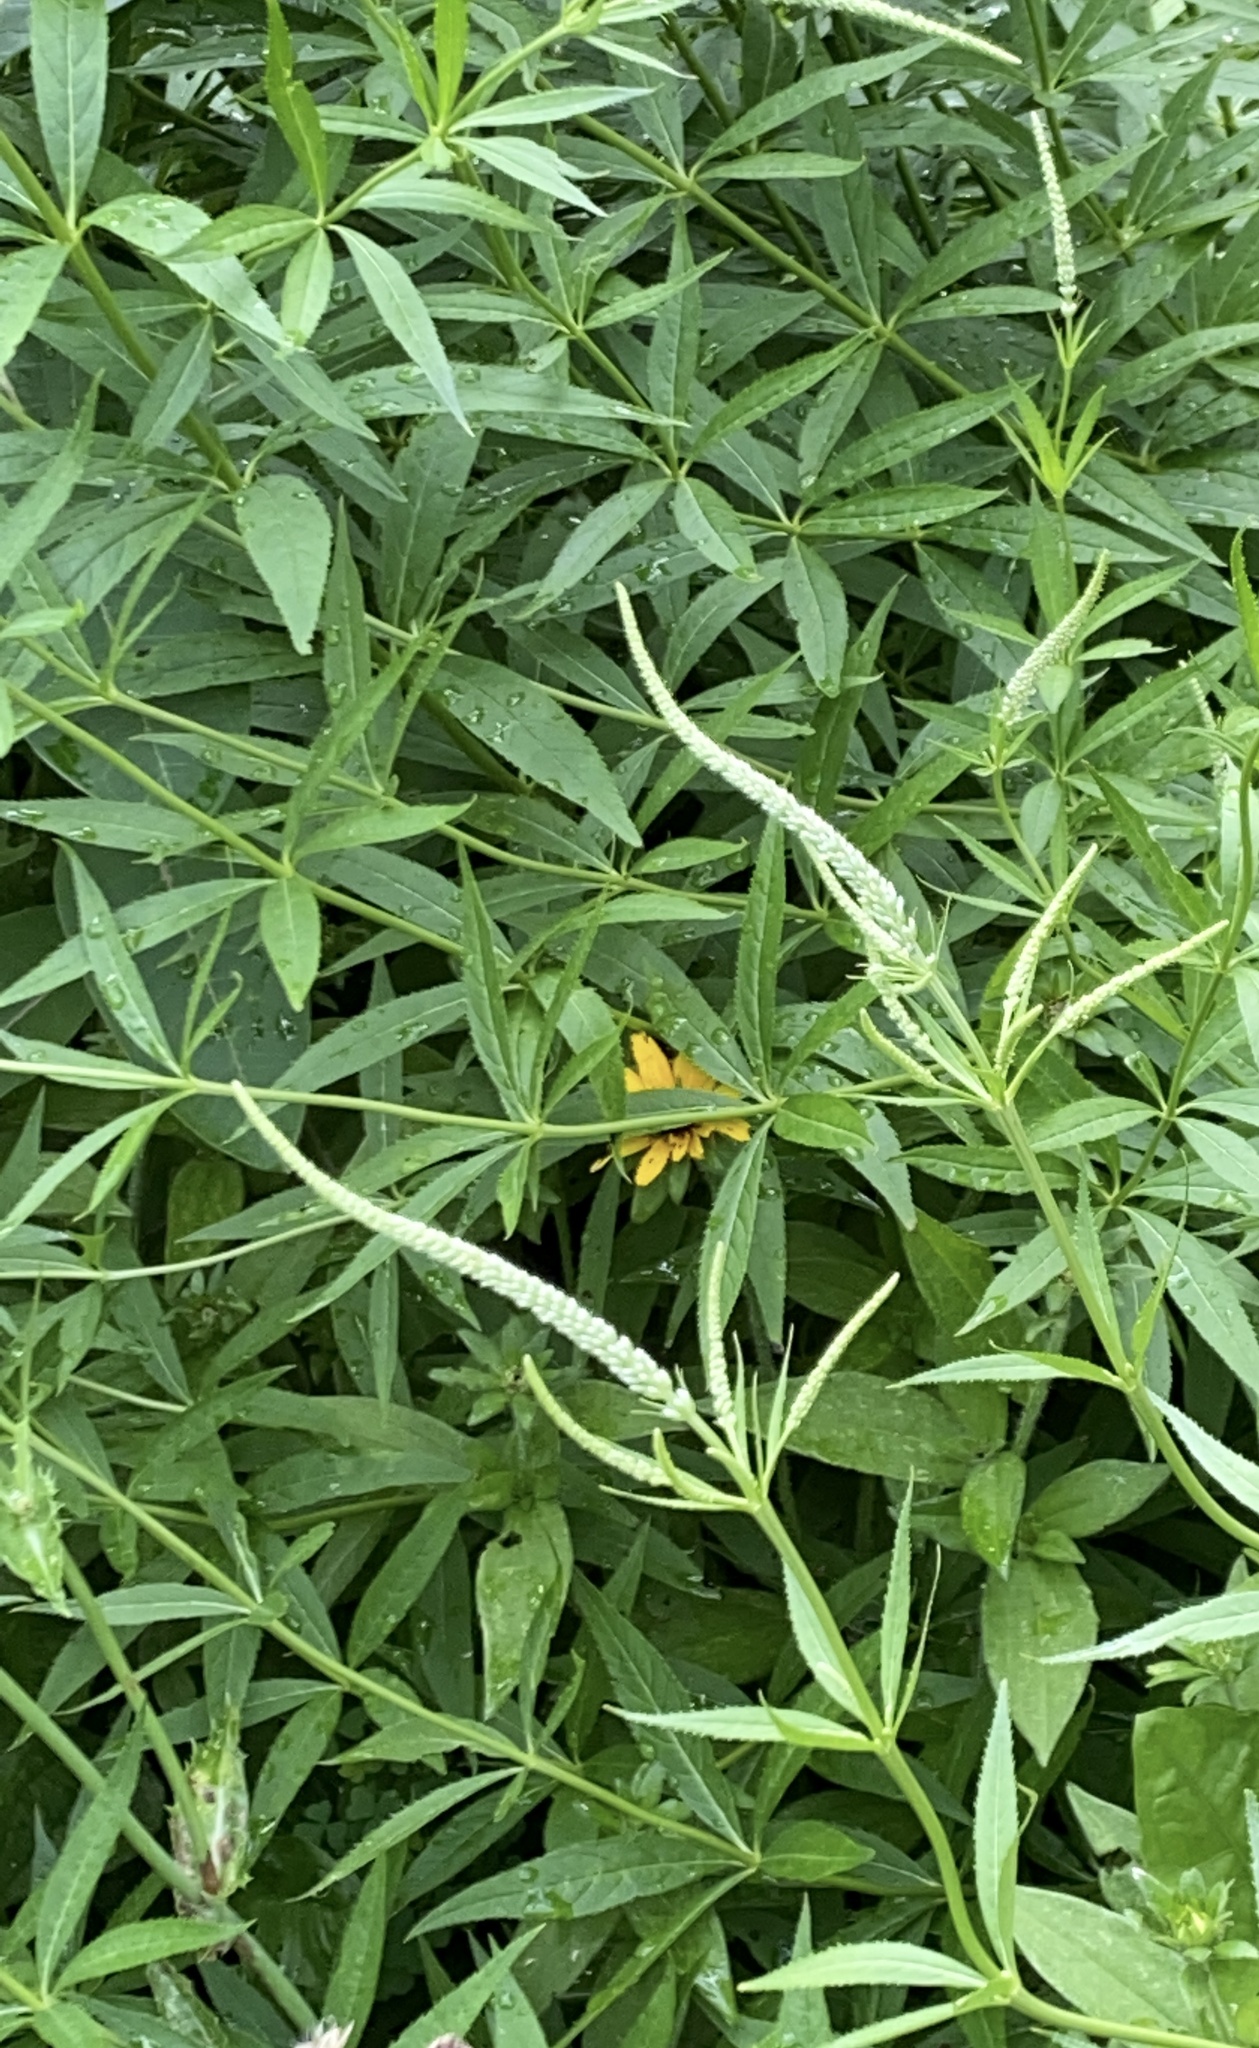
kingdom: Plantae
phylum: Tracheophyta
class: Magnoliopsida
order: Lamiales
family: Plantaginaceae
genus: Veronicastrum
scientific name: Veronicastrum virginicum
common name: Blackroot
